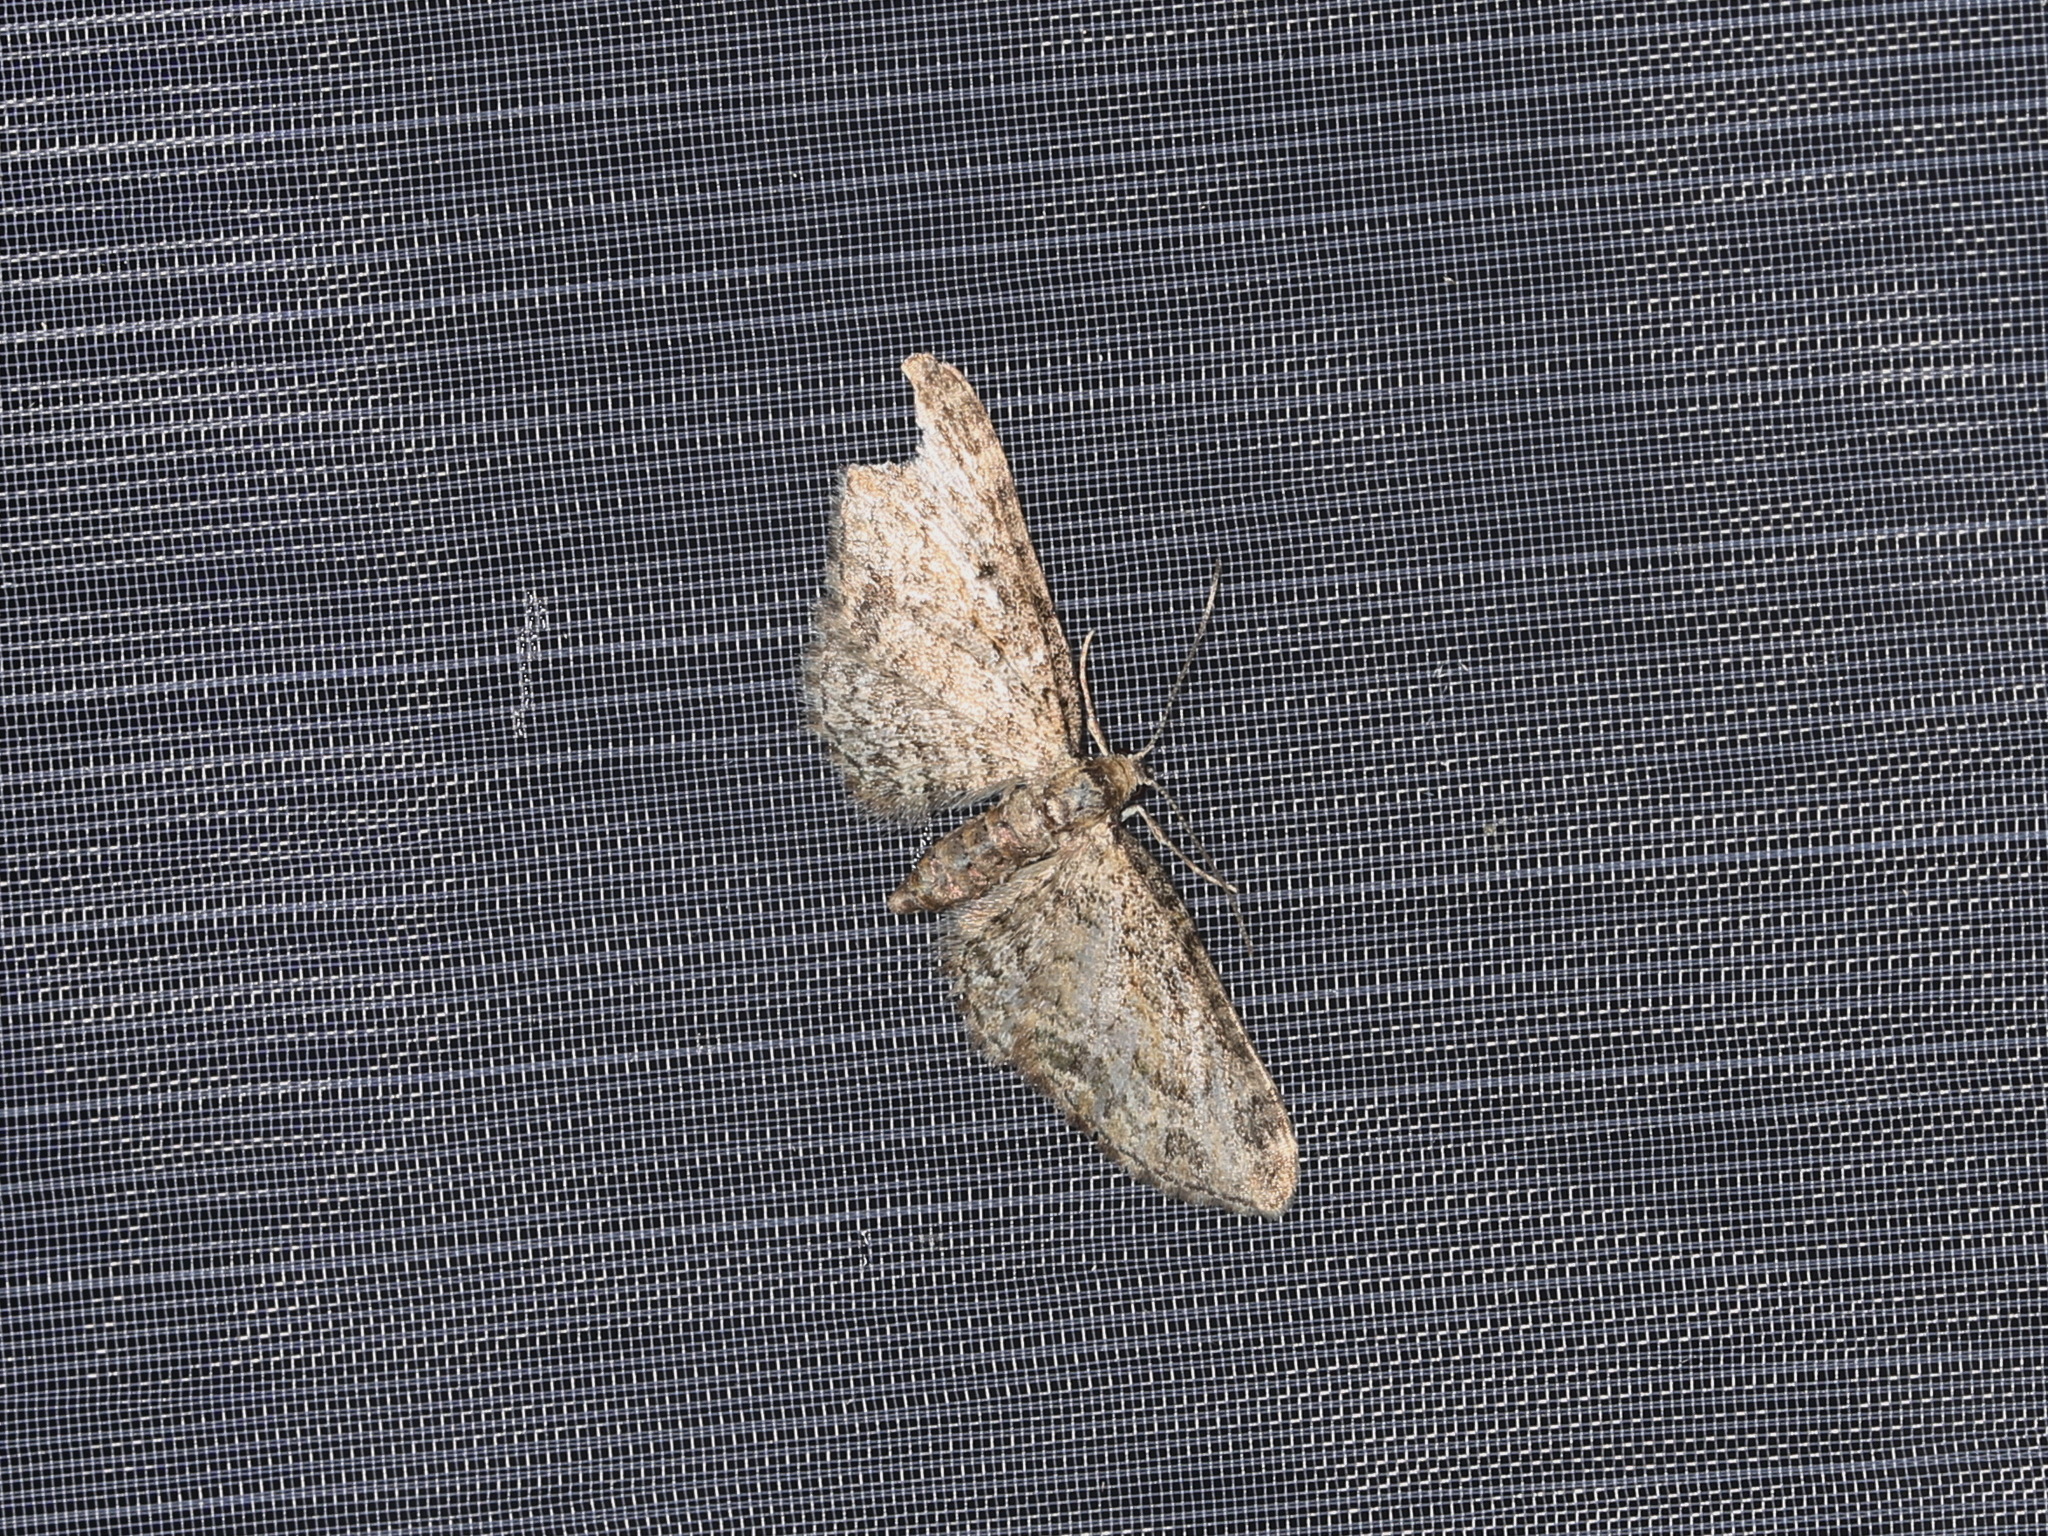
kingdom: Animalia
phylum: Arthropoda
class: Insecta
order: Lepidoptera
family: Geometridae
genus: Eupithecia
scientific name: Eupithecia inturbata
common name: Maple pug
